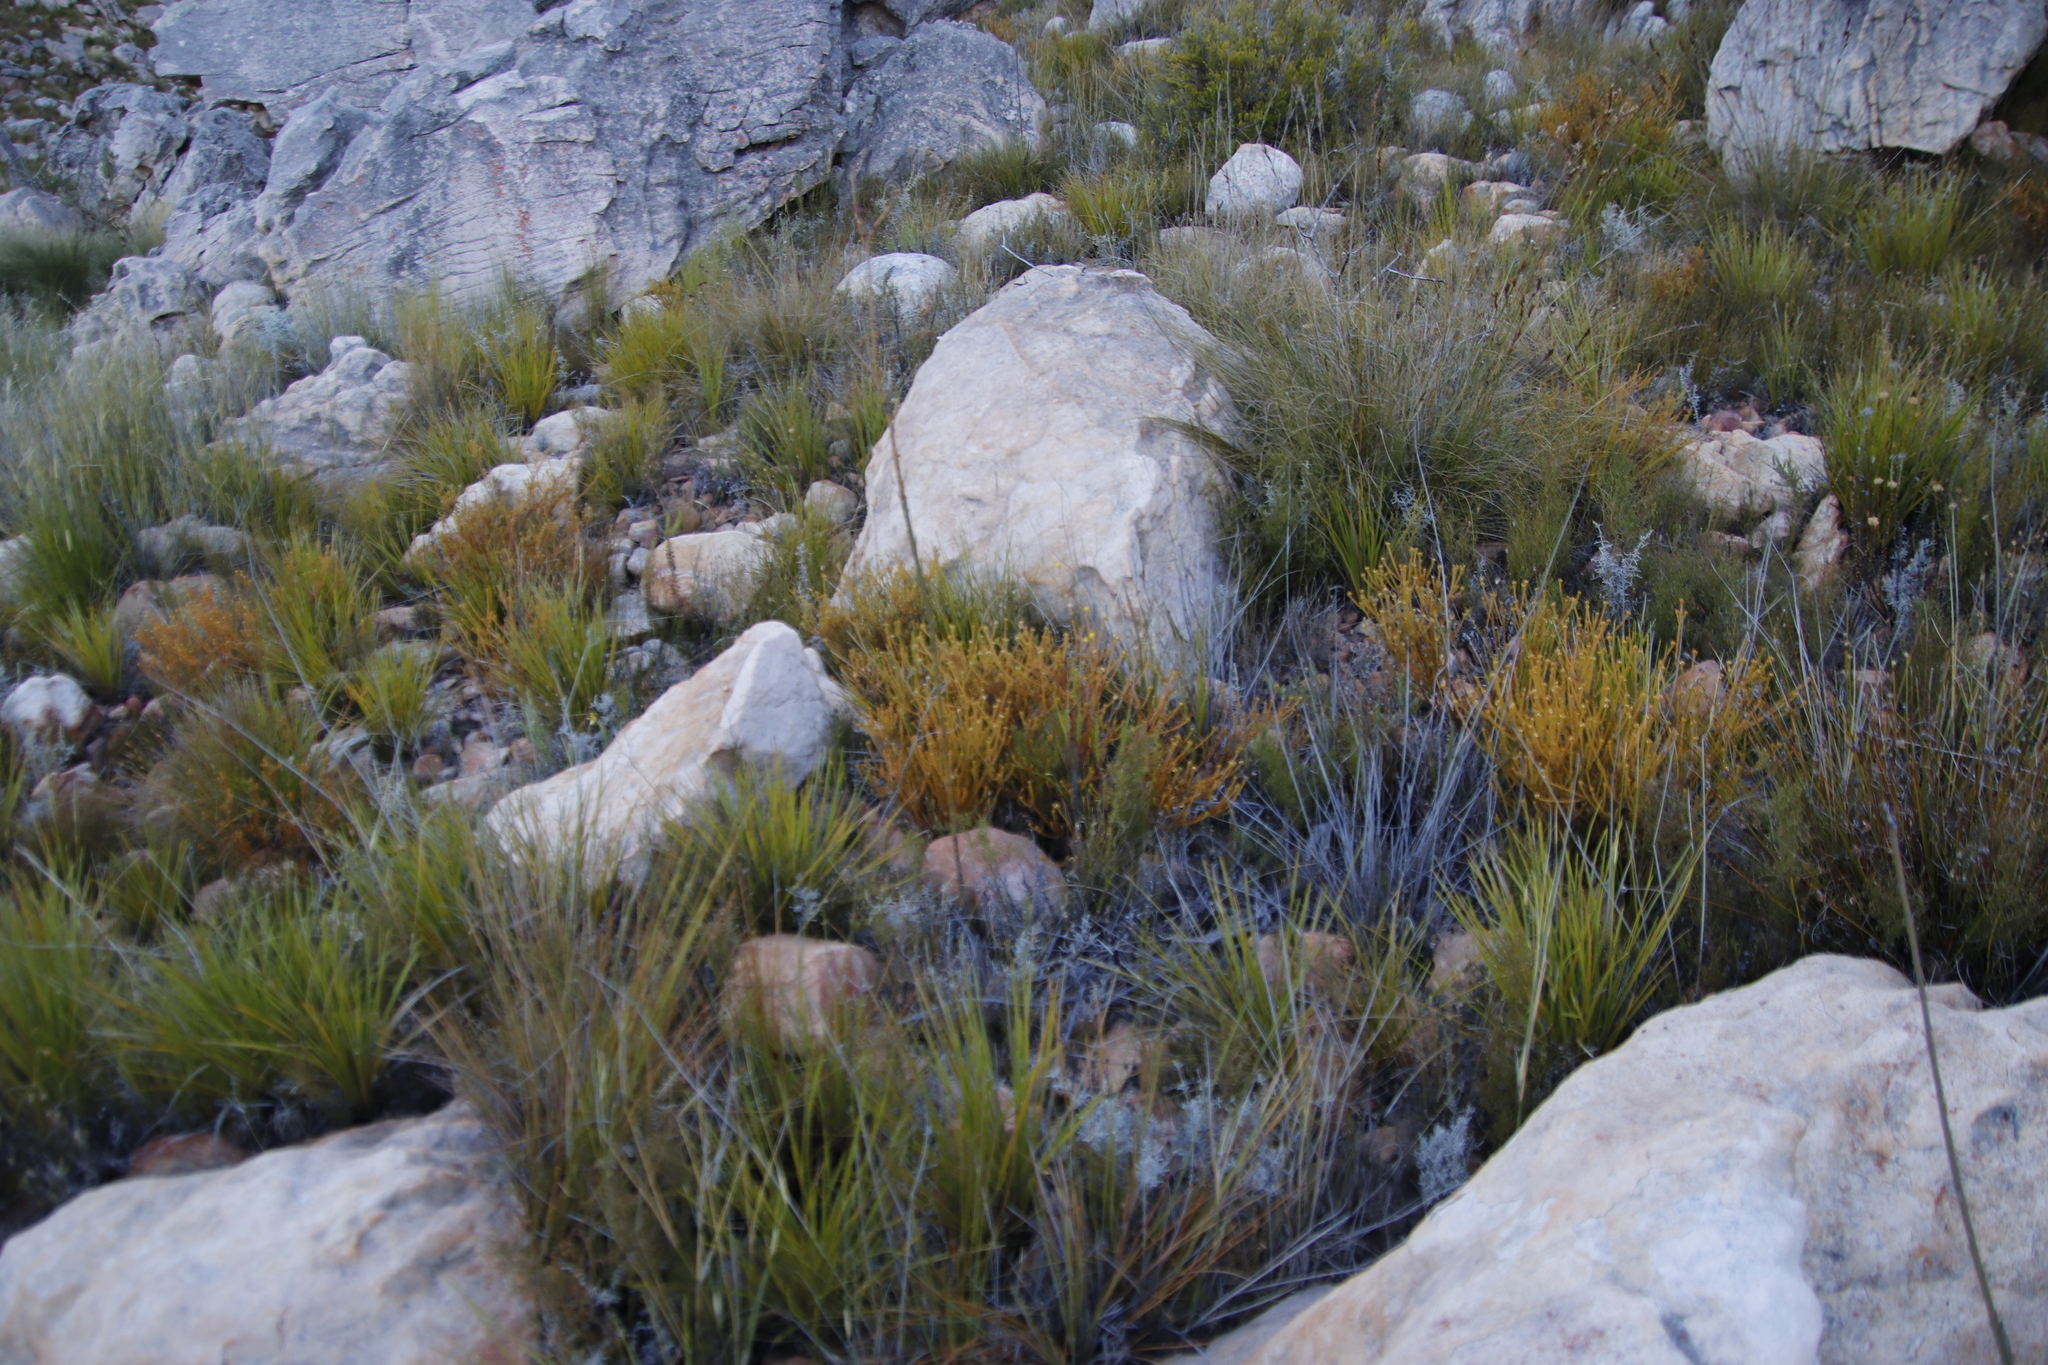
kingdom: Plantae
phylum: Tracheophyta
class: Magnoliopsida
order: Santalales
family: Thesiaceae
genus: Thesium
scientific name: Thesium carinatum
